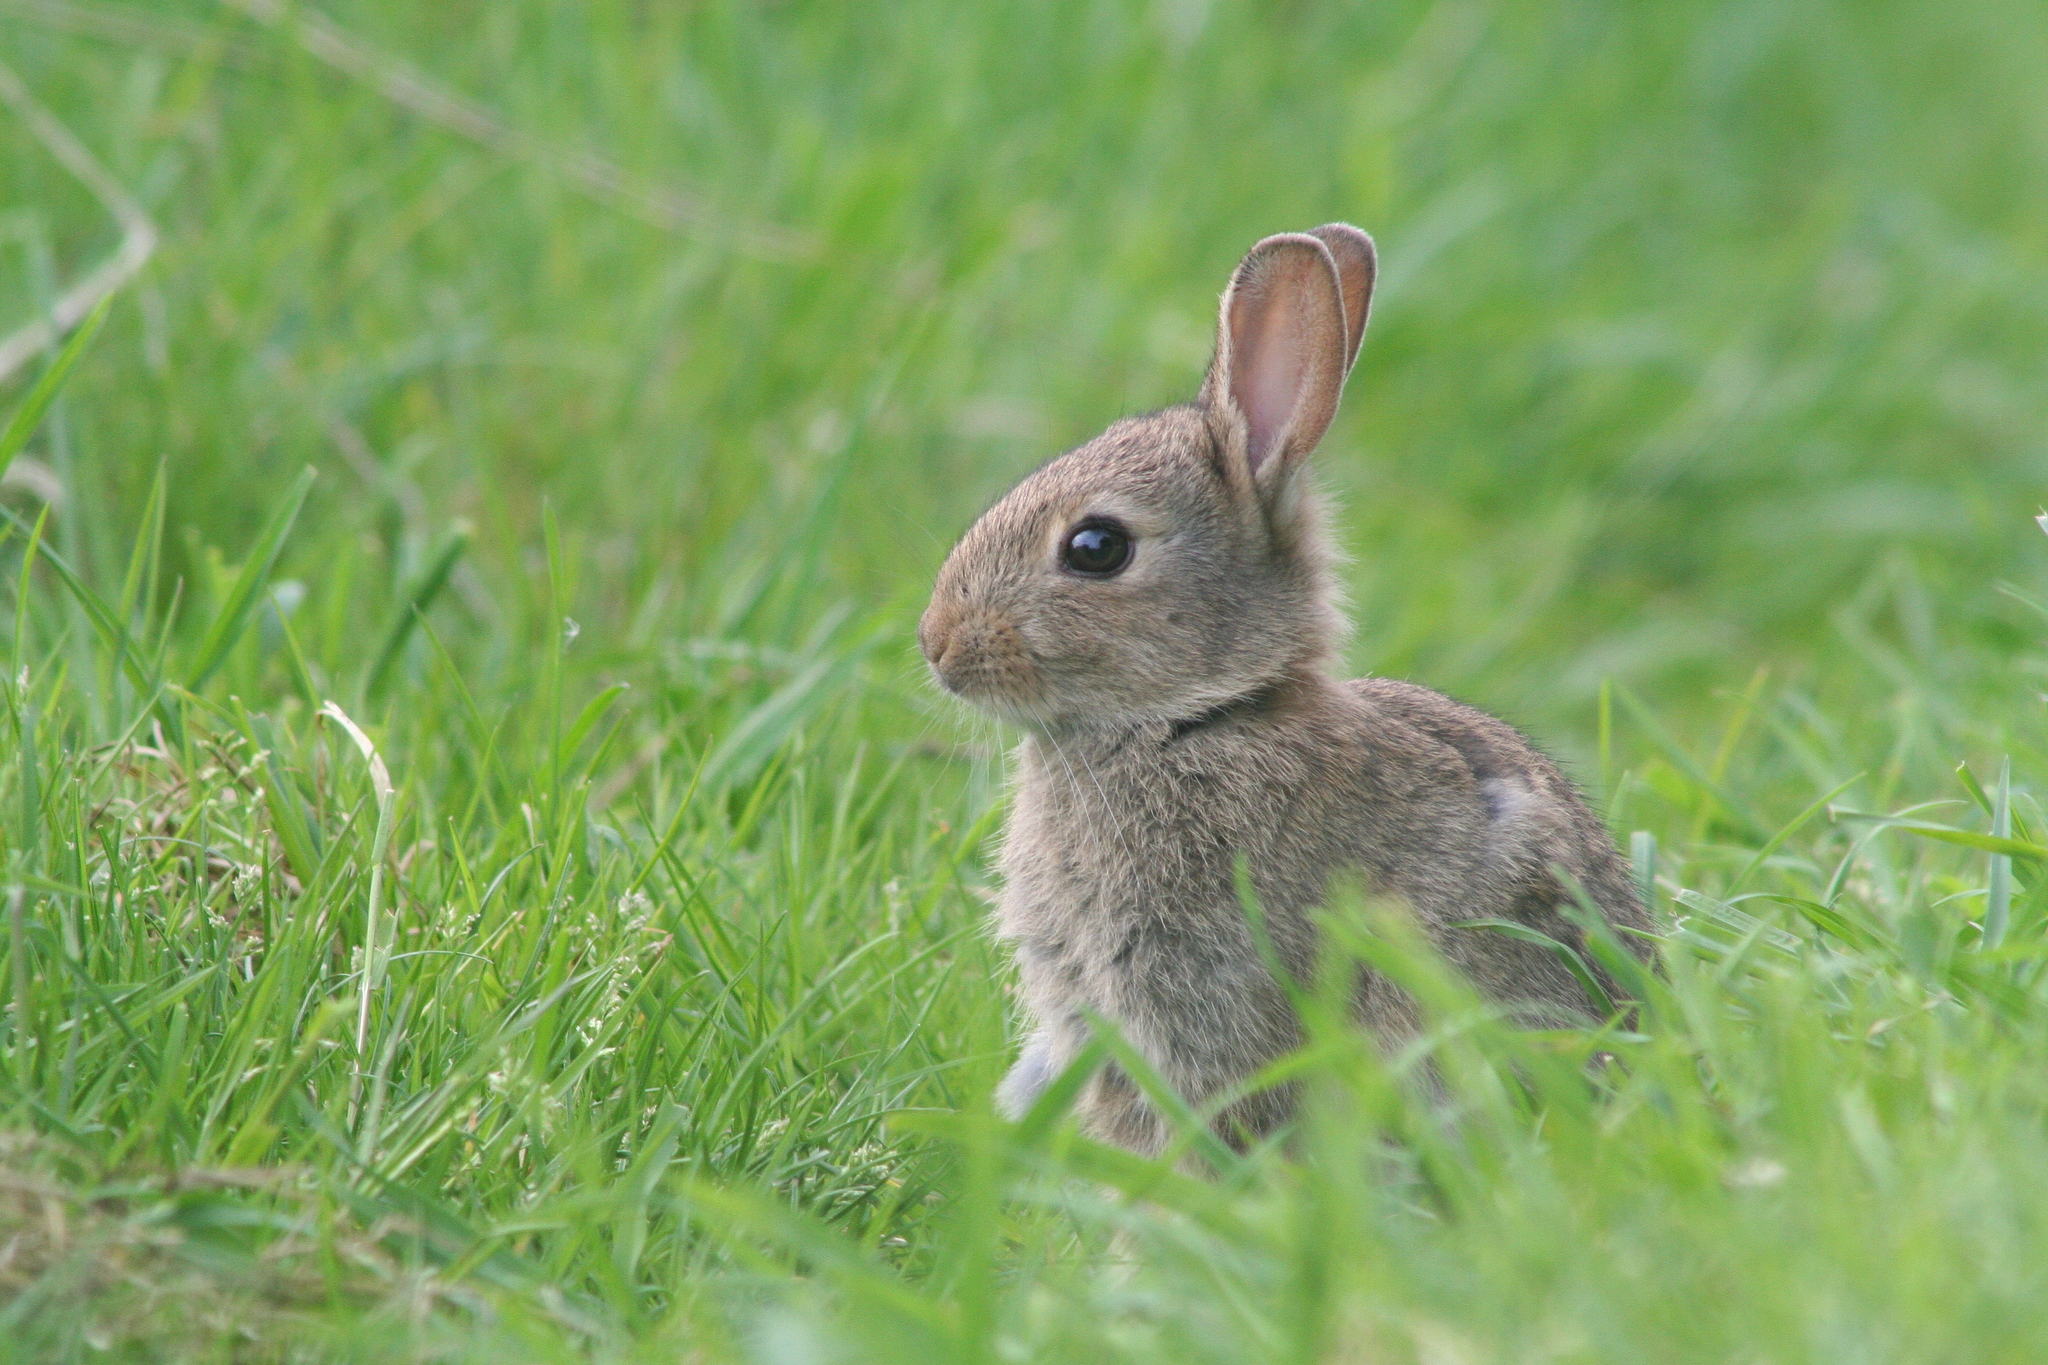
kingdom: Animalia
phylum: Chordata
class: Mammalia
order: Lagomorpha
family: Leporidae
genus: Oryctolagus
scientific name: Oryctolagus cuniculus
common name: European rabbit
